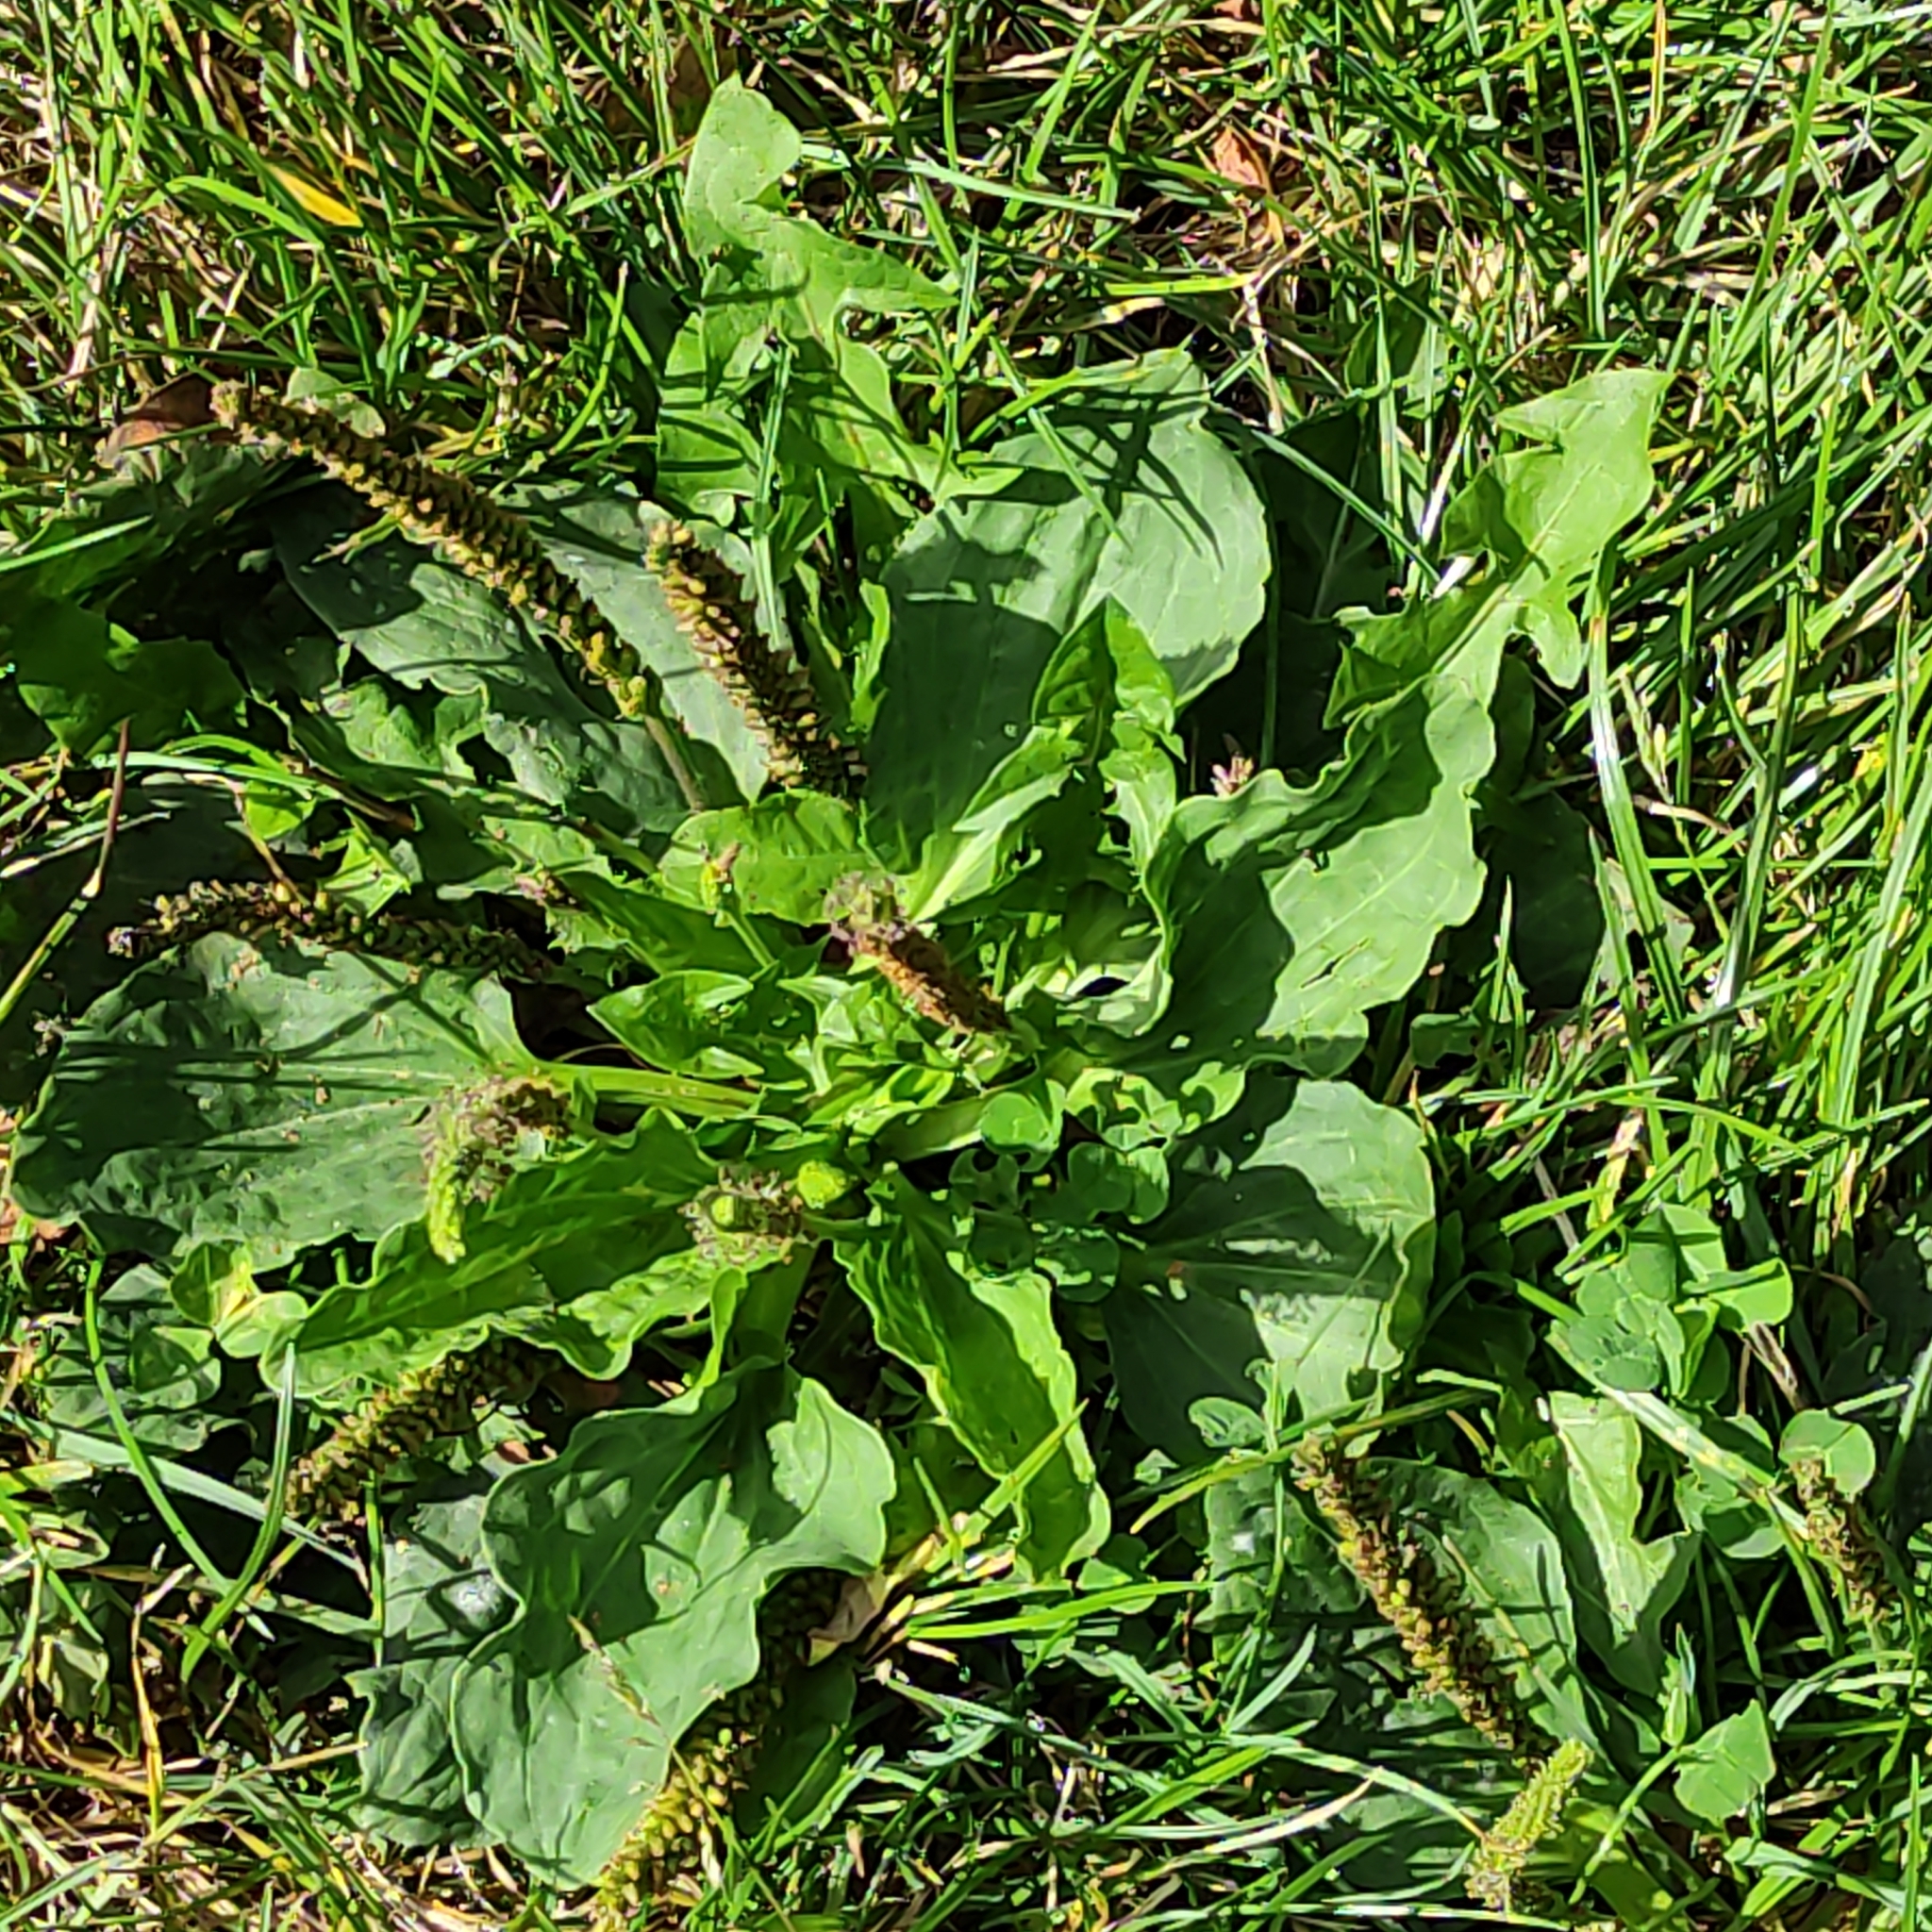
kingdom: Plantae
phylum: Tracheophyta
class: Magnoliopsida
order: Lamiales
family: Plantaginaceae
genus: Plantago
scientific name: Plantago major
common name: Common plantain
